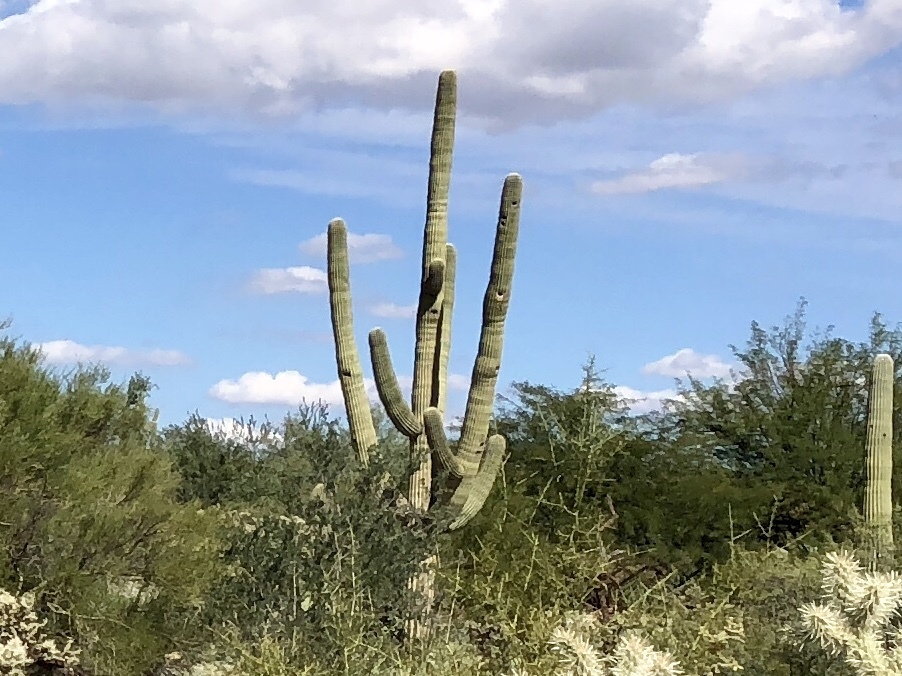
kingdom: Plantae
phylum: Tracheophyta
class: Magnoliopsida
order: Caryophyllales
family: Cactaceae
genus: Carnegiea
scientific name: Carnegiea gigantea
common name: Saguaro
